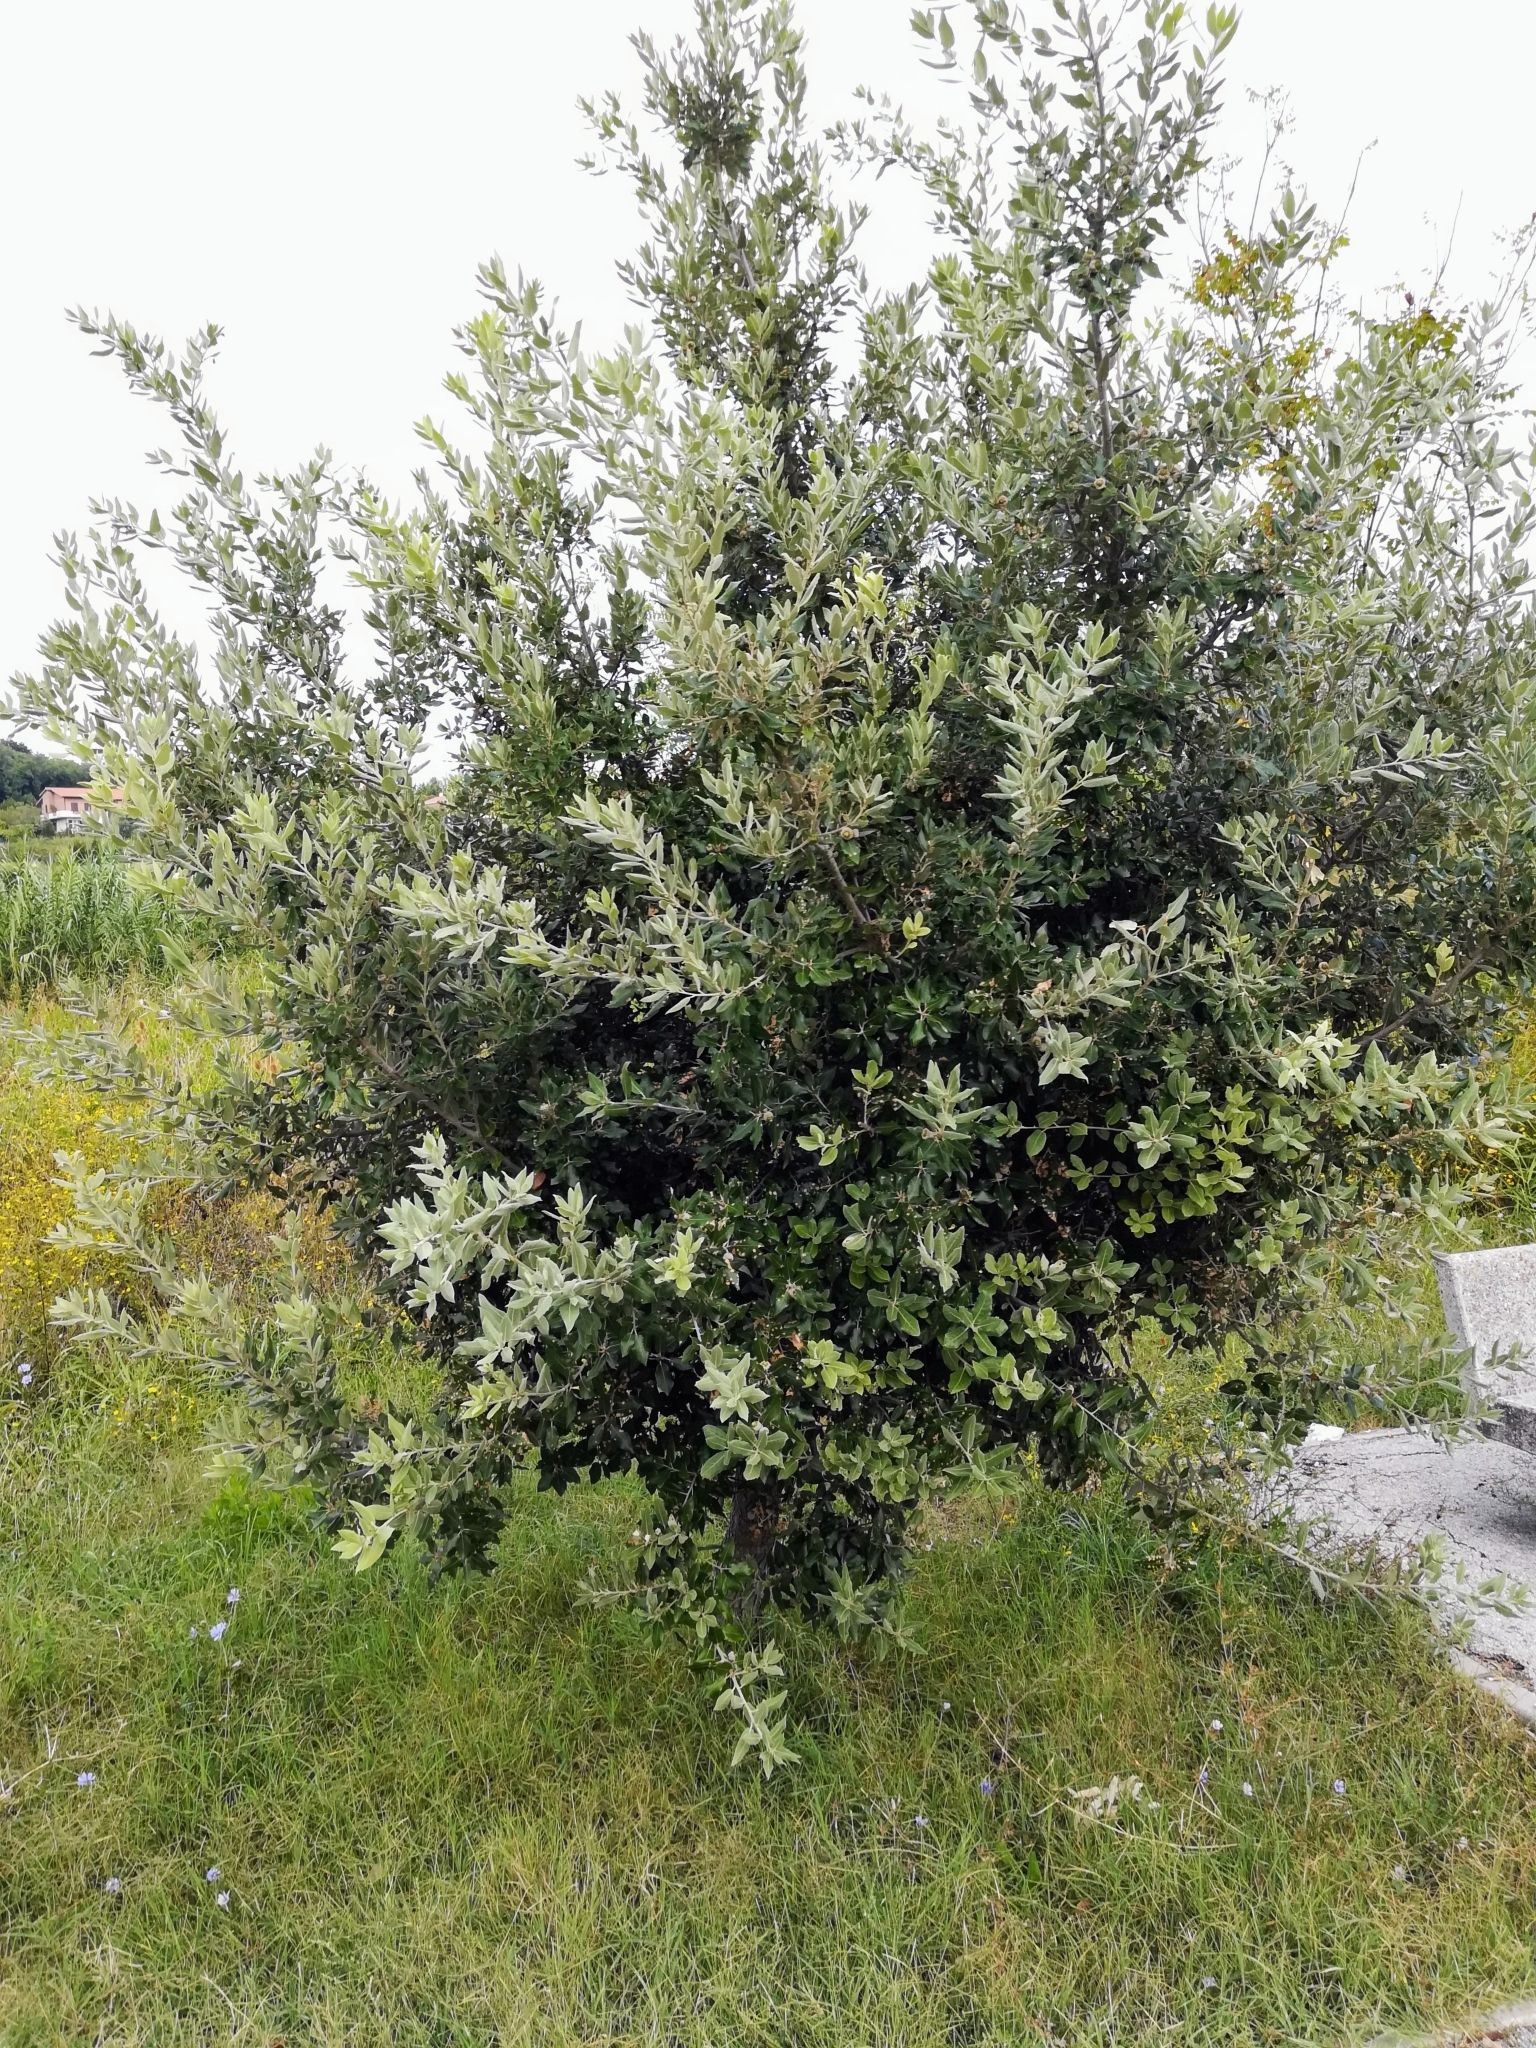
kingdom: Plantae
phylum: Tracheophyta
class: Magnoliopsida
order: Fagales
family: Fagaceae
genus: Quercus
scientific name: Quercus ilex
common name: Evergreen oak
